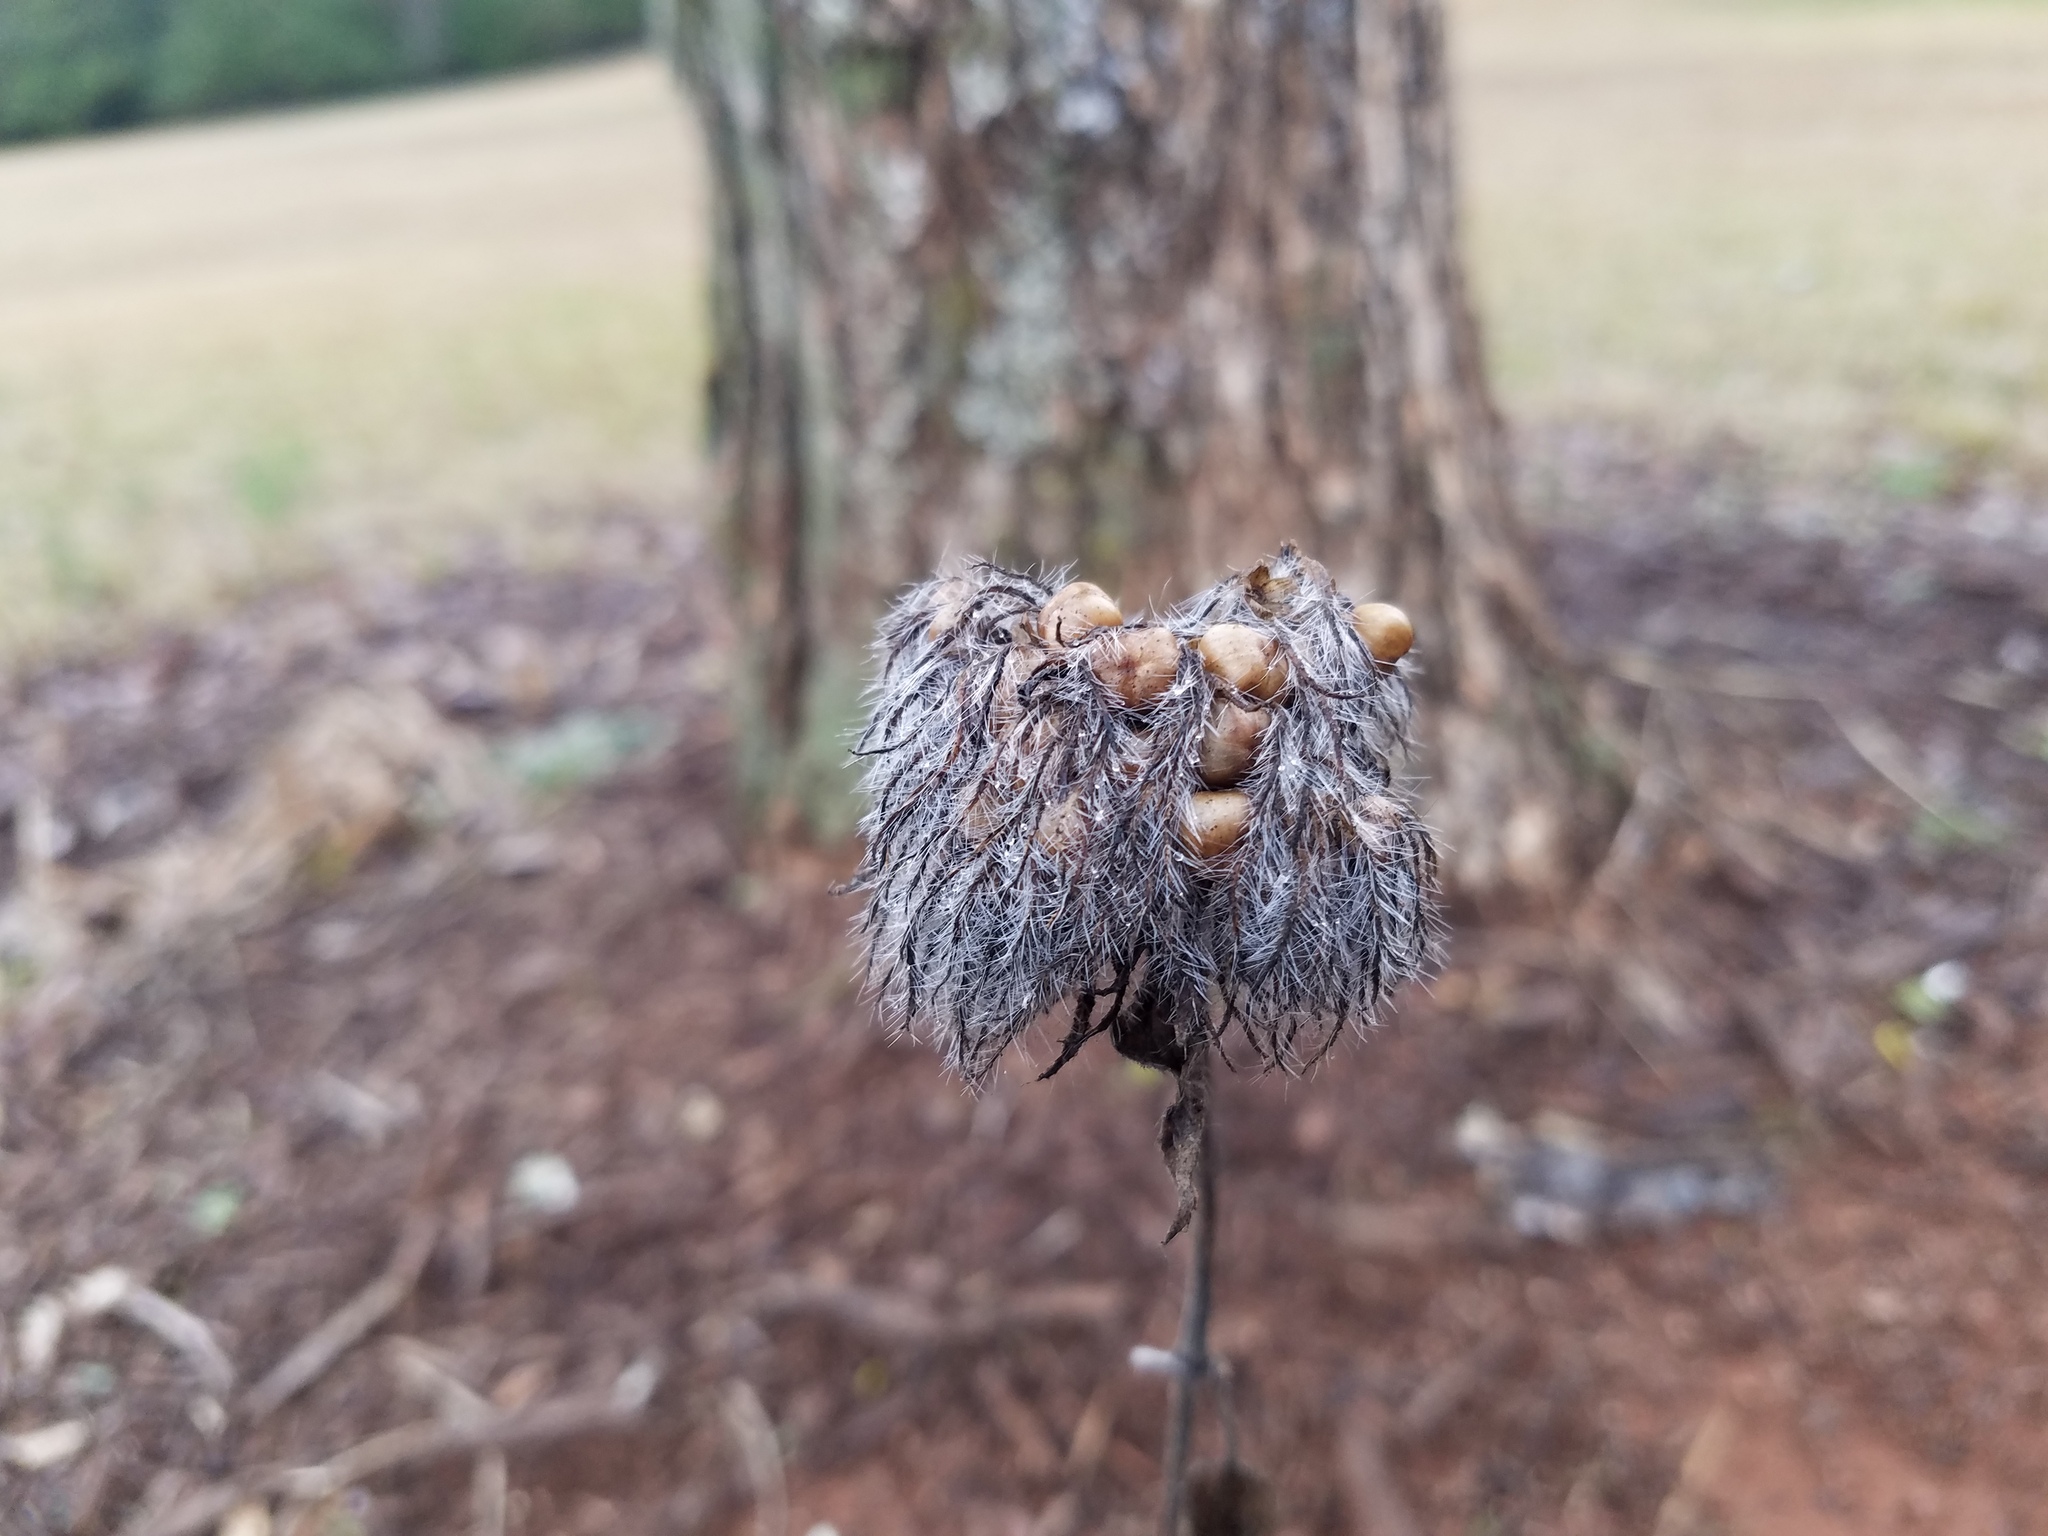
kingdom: Plantae
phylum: Tracheophyta
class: Magnoliopsida
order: Solanales
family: Convolvulaceae
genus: Jacquemontia
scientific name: Jacquemontia tamnifolia
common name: Hairy clustervine
